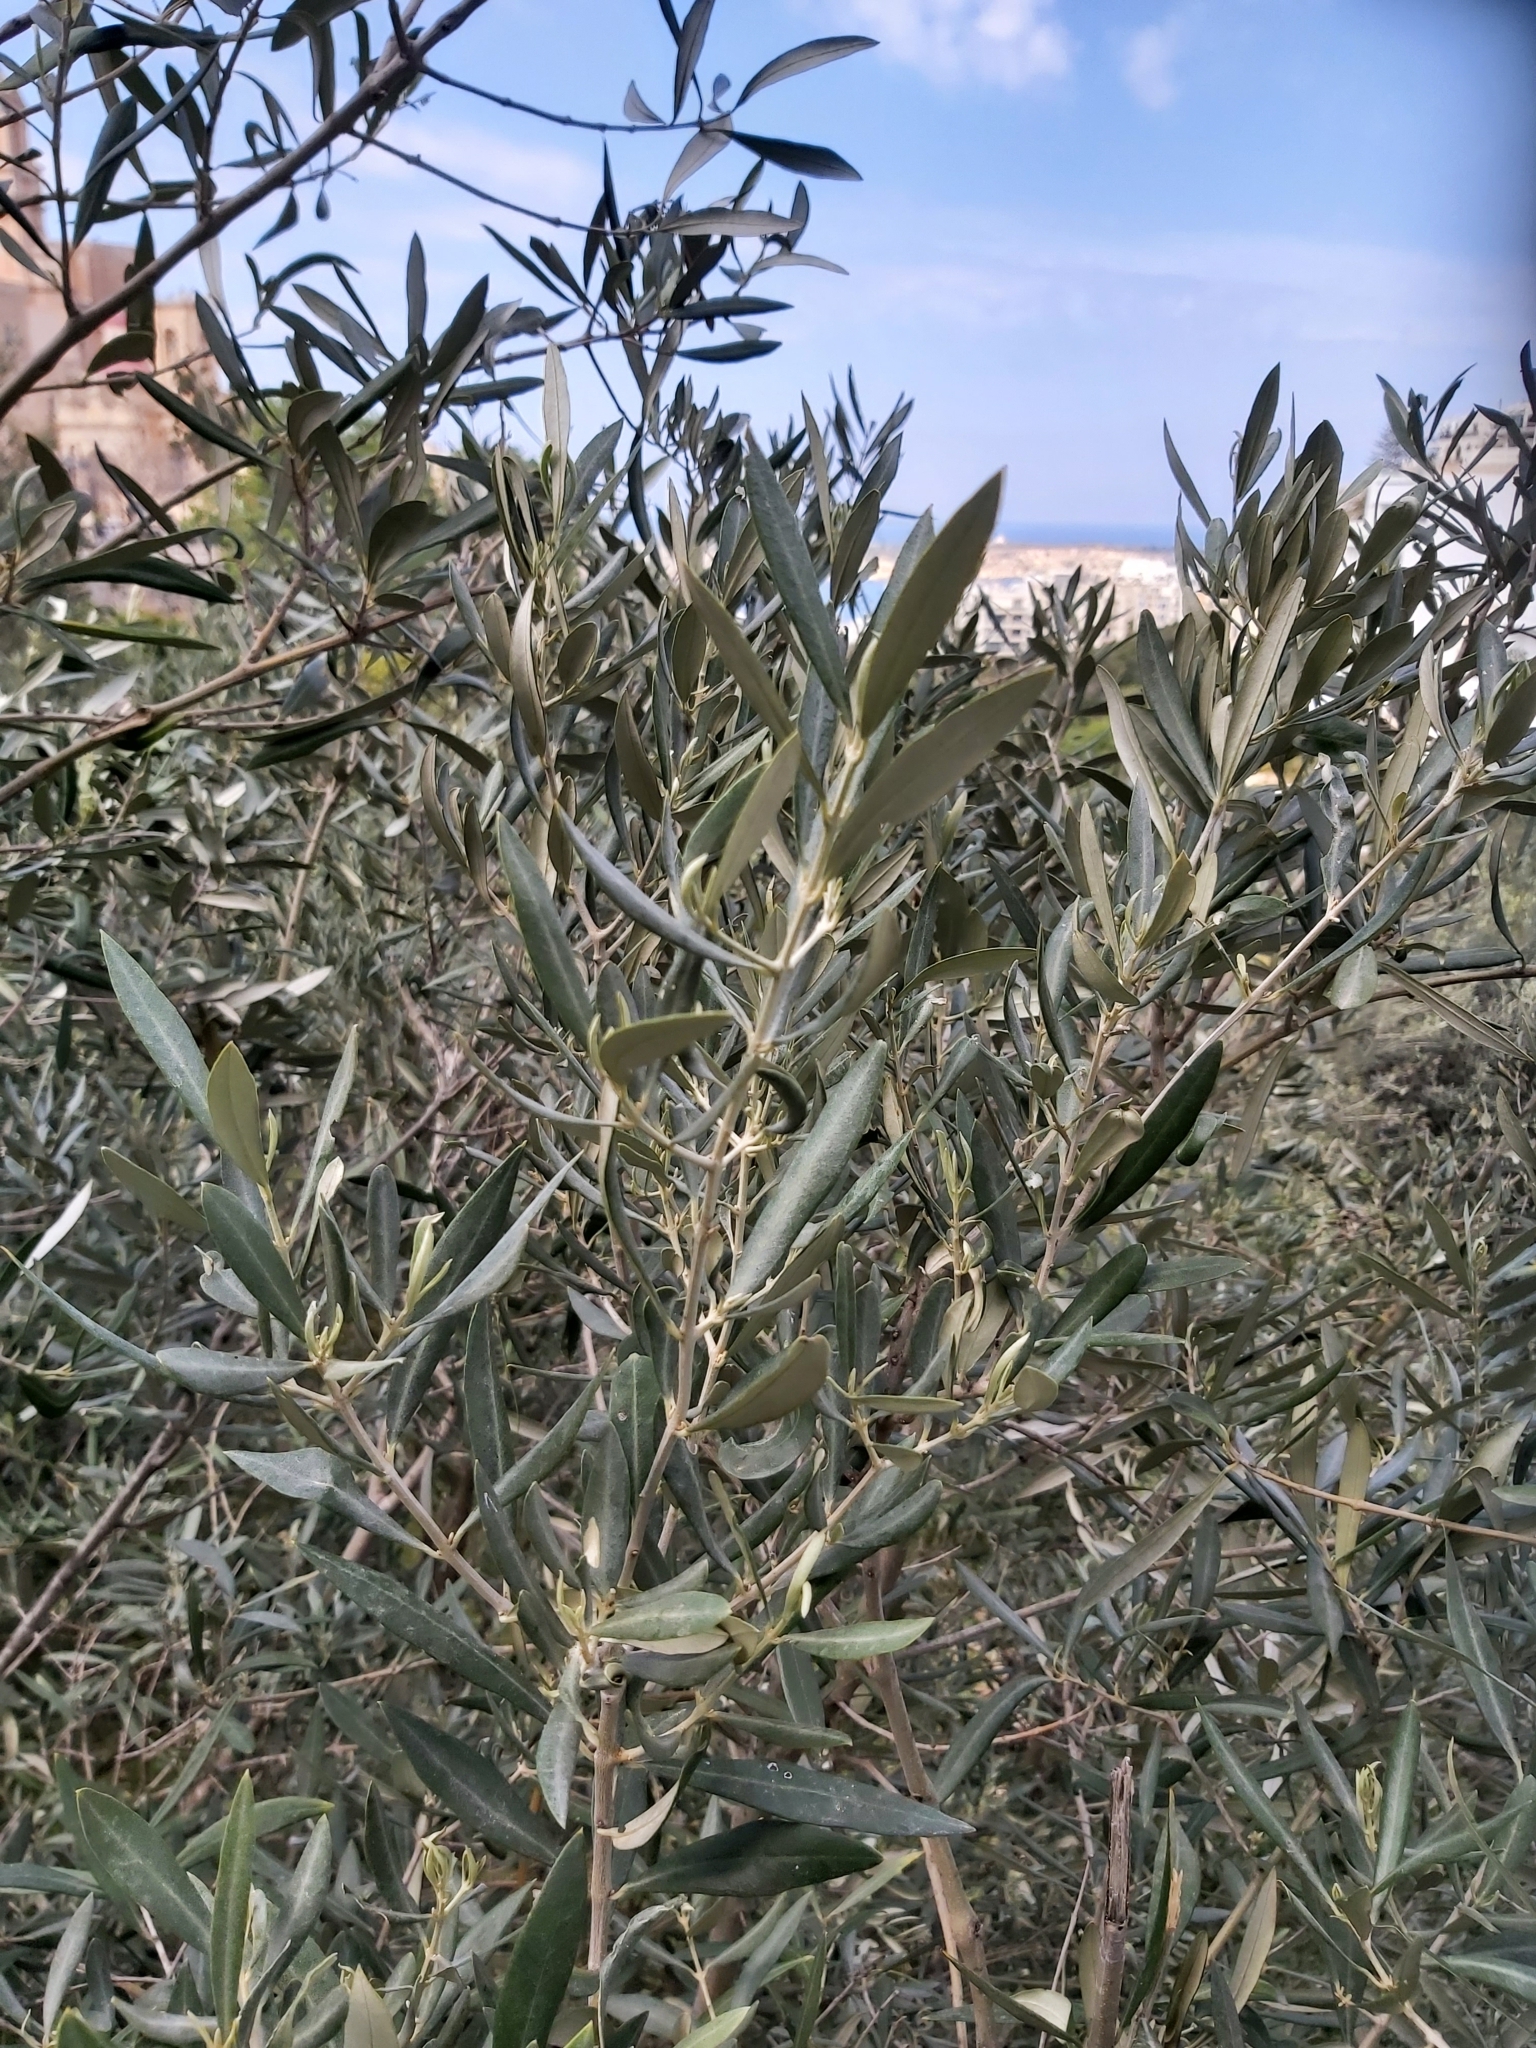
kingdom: Plantae
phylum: Tracheophyta
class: Magnoliopsida
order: Lamiales
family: Oleaceae
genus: Olea
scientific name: Olea europaea
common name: Olive
